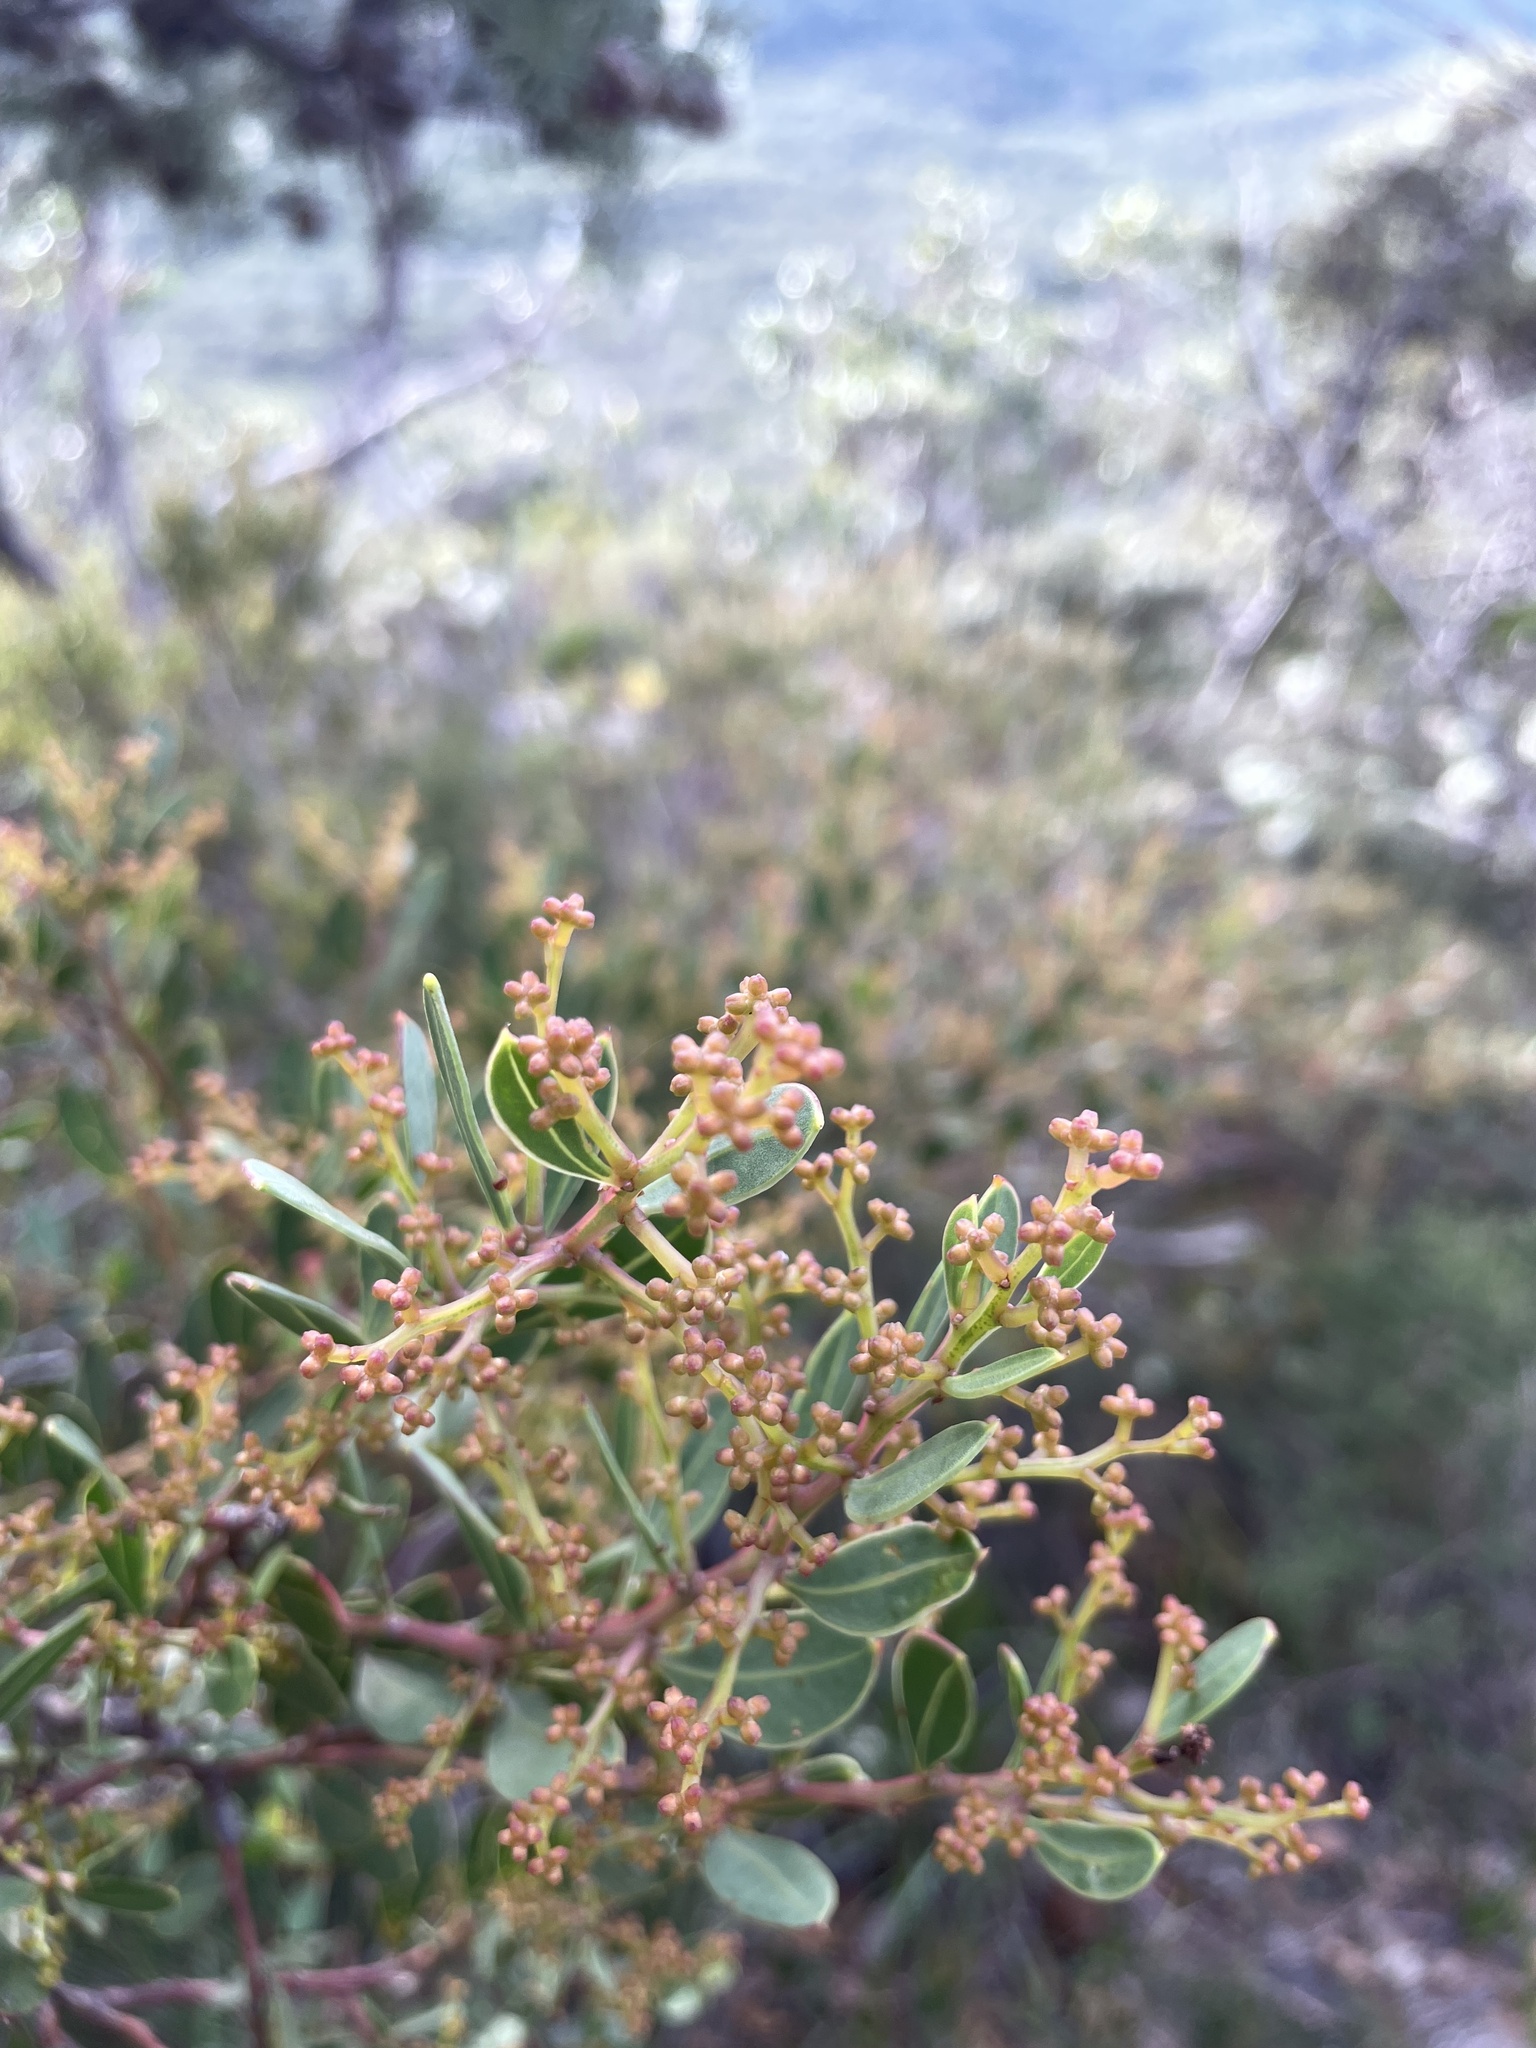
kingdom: Plantae
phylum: Tracheophyta
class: Magnoliopsida
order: Fabales
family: Fabaceae
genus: Acacia
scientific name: Acacia myrtifolia
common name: Myrtle wattle
